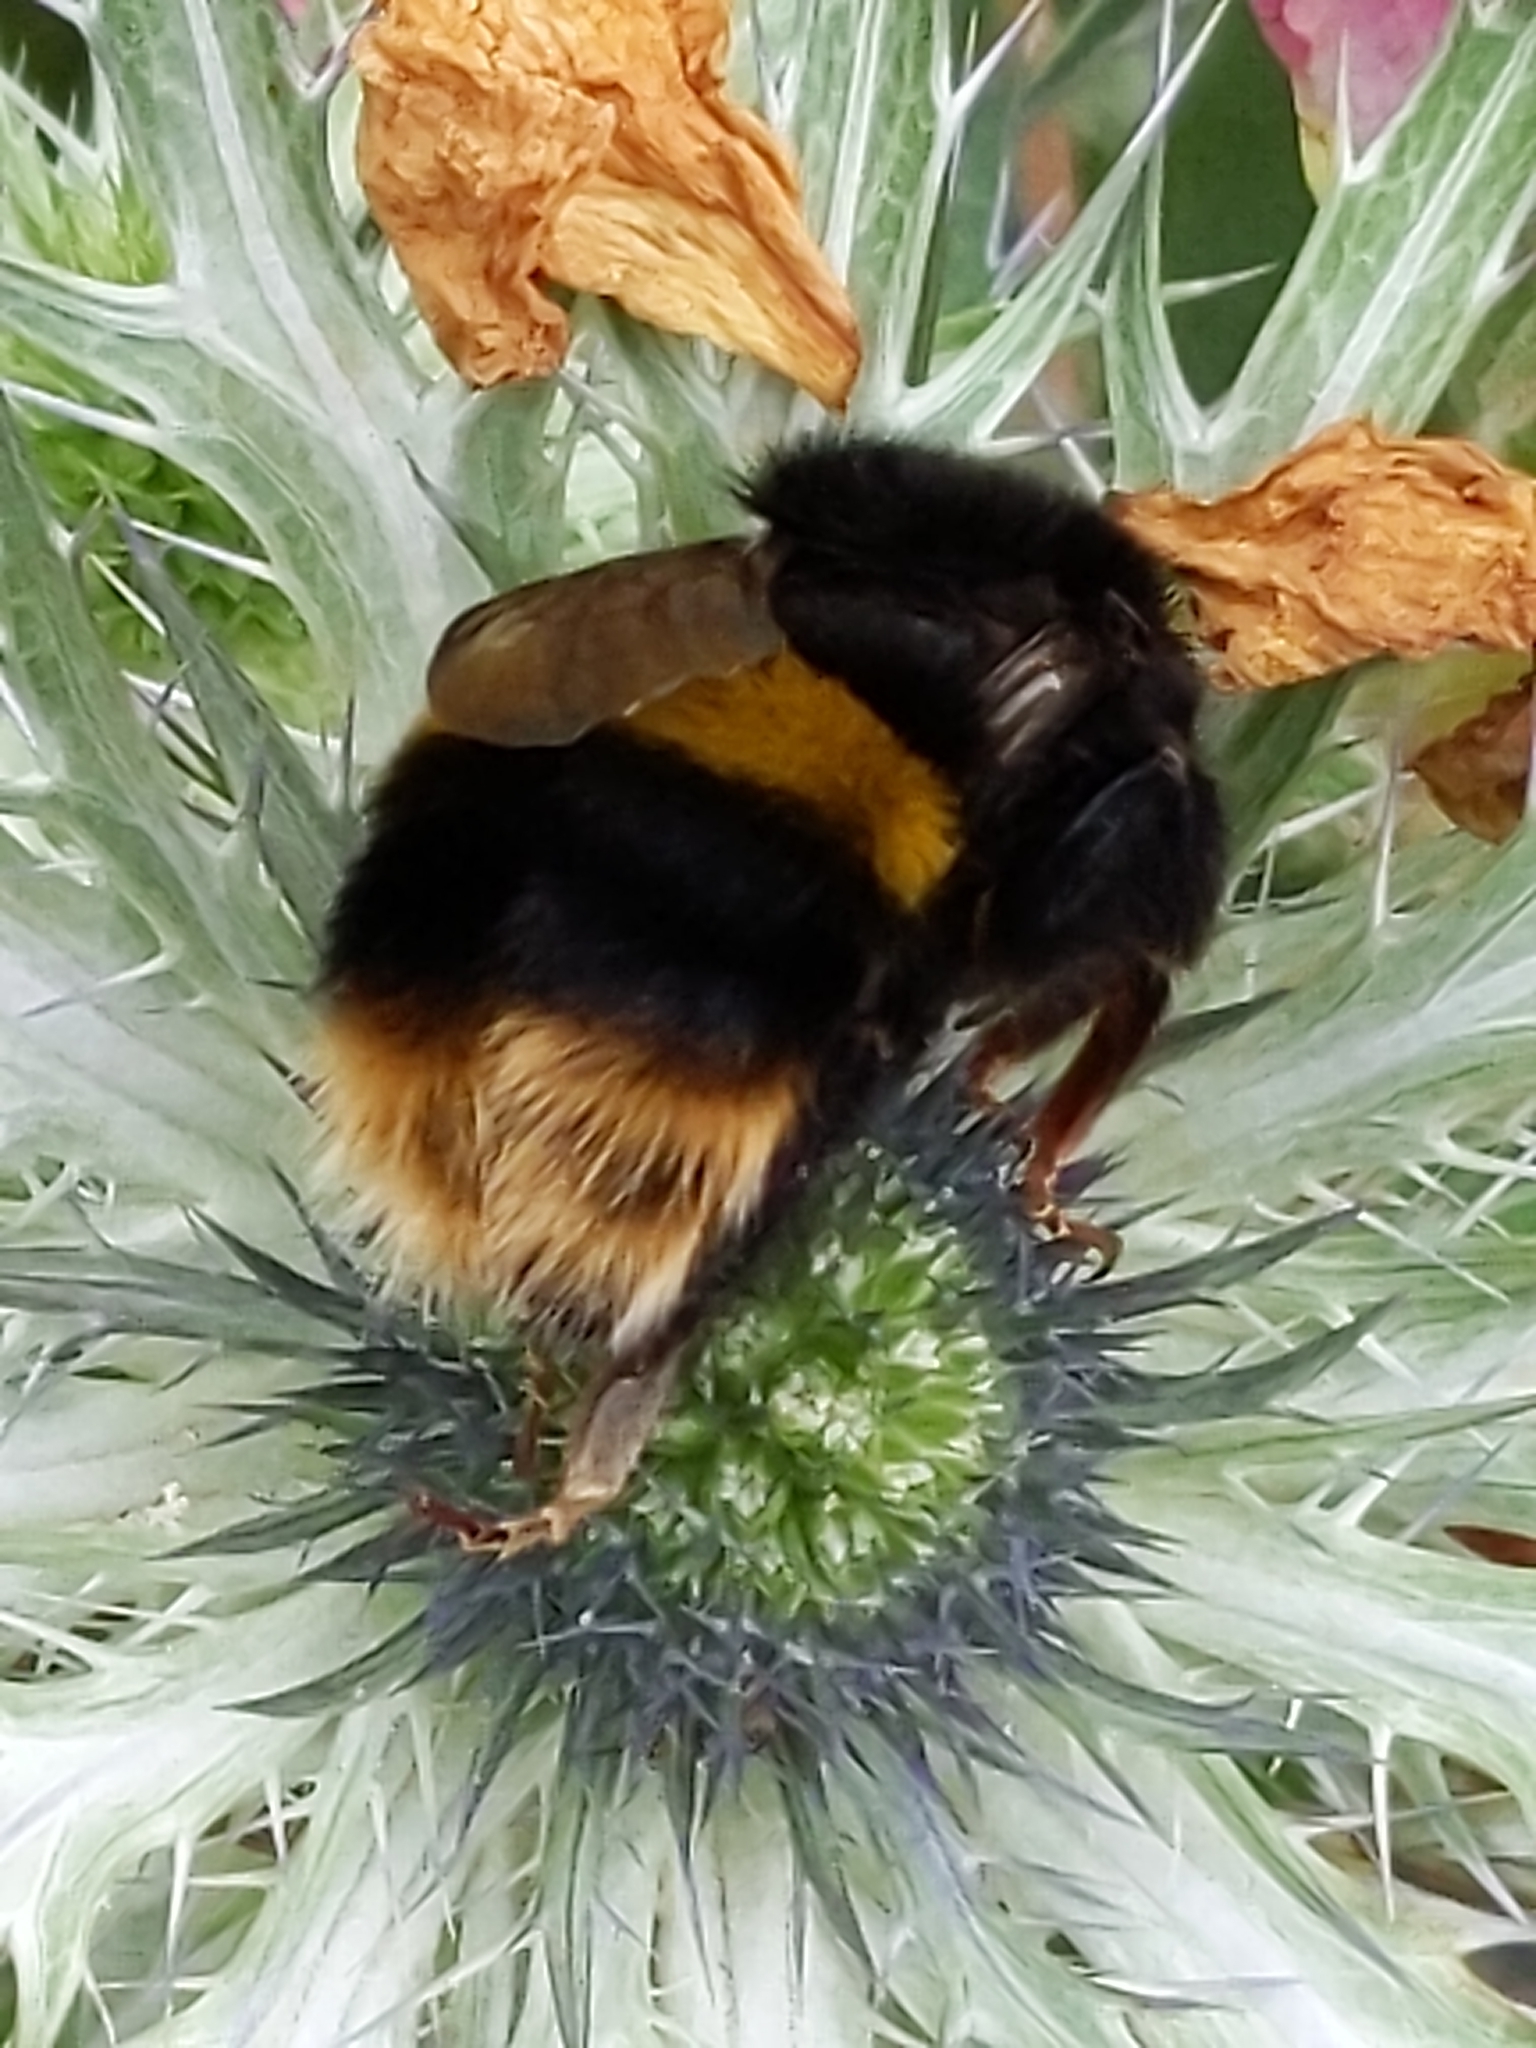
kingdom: Animalia
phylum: Arthropoda
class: Insecta
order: Hymenoptera
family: Apidae
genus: Bombus
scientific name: Bombus terrestris
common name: Buff-tailed bumblebee
